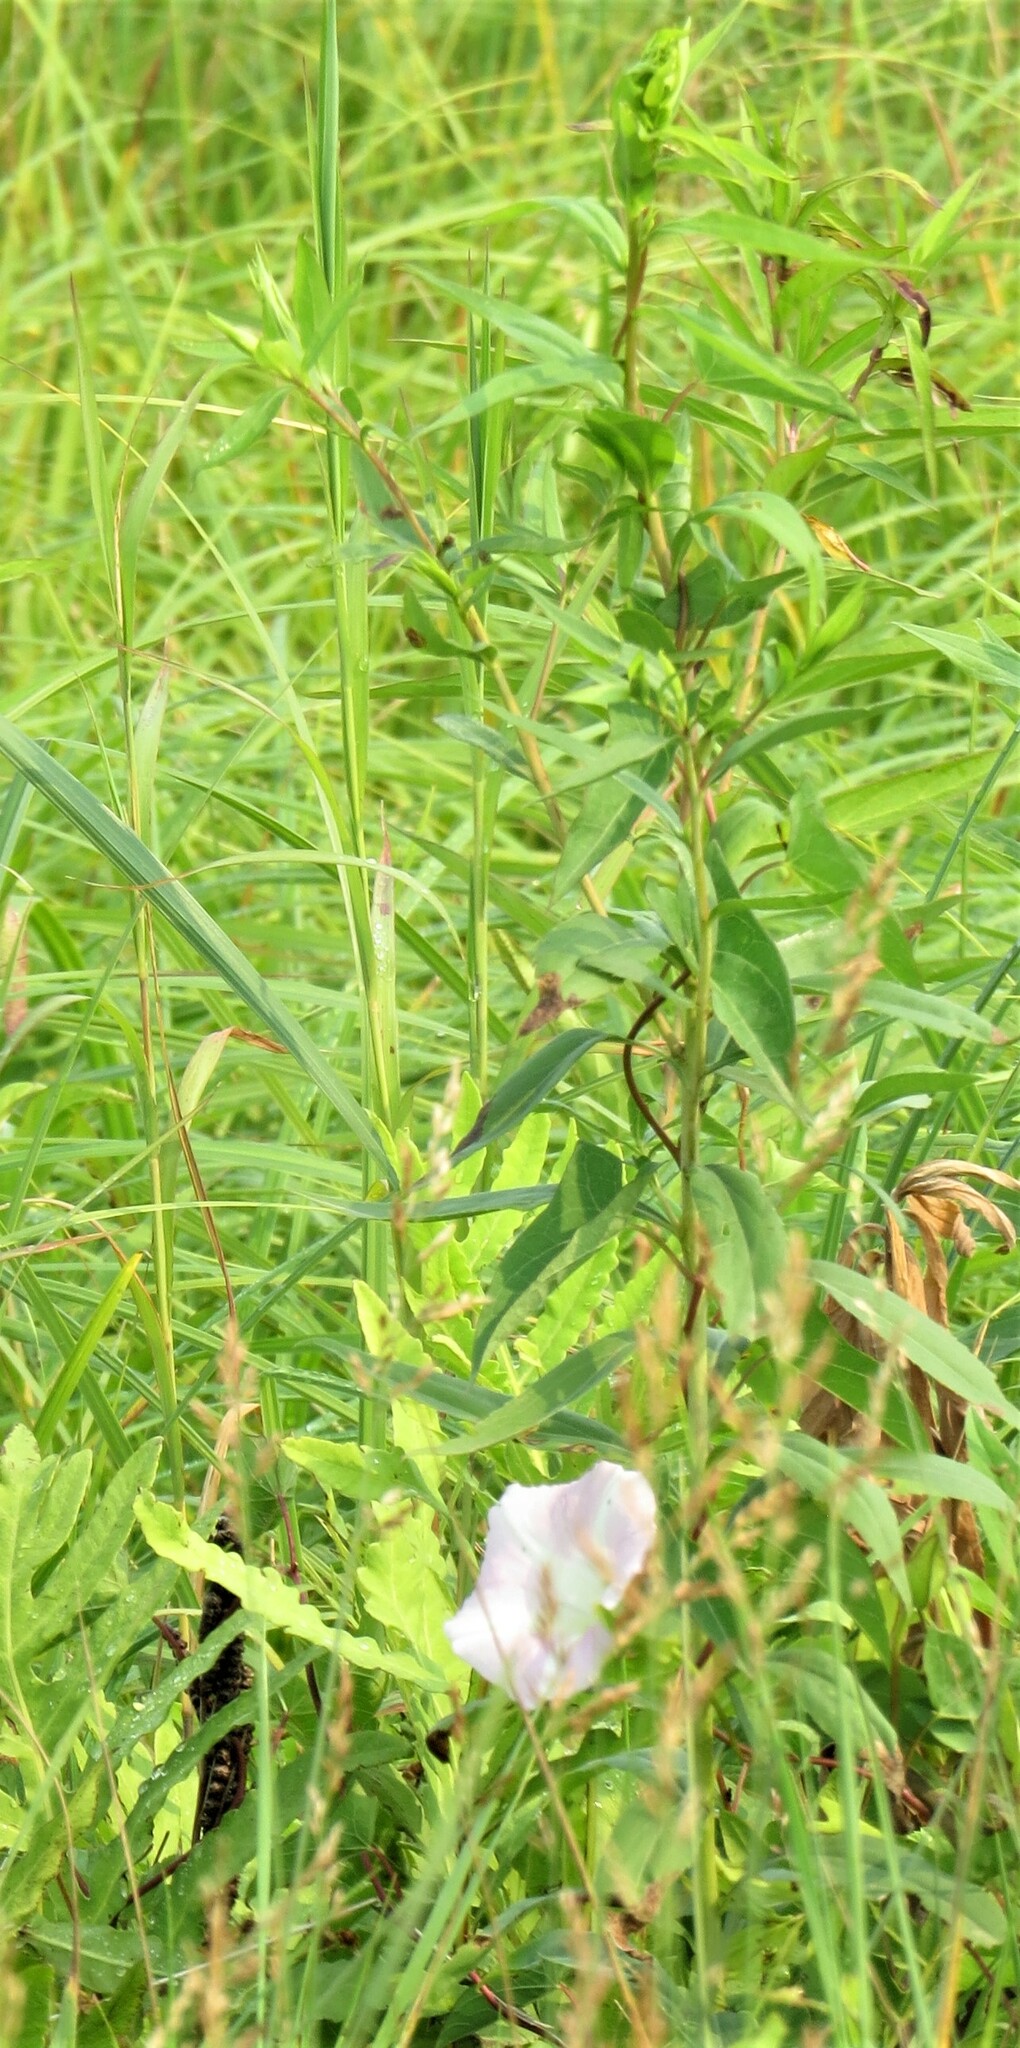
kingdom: Plantae
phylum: Tracheophyta
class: Magnoliopsida
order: Solanales
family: Convolvulaceae
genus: Calystegia
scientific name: Calystegia sepium
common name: Hedge bindweed
